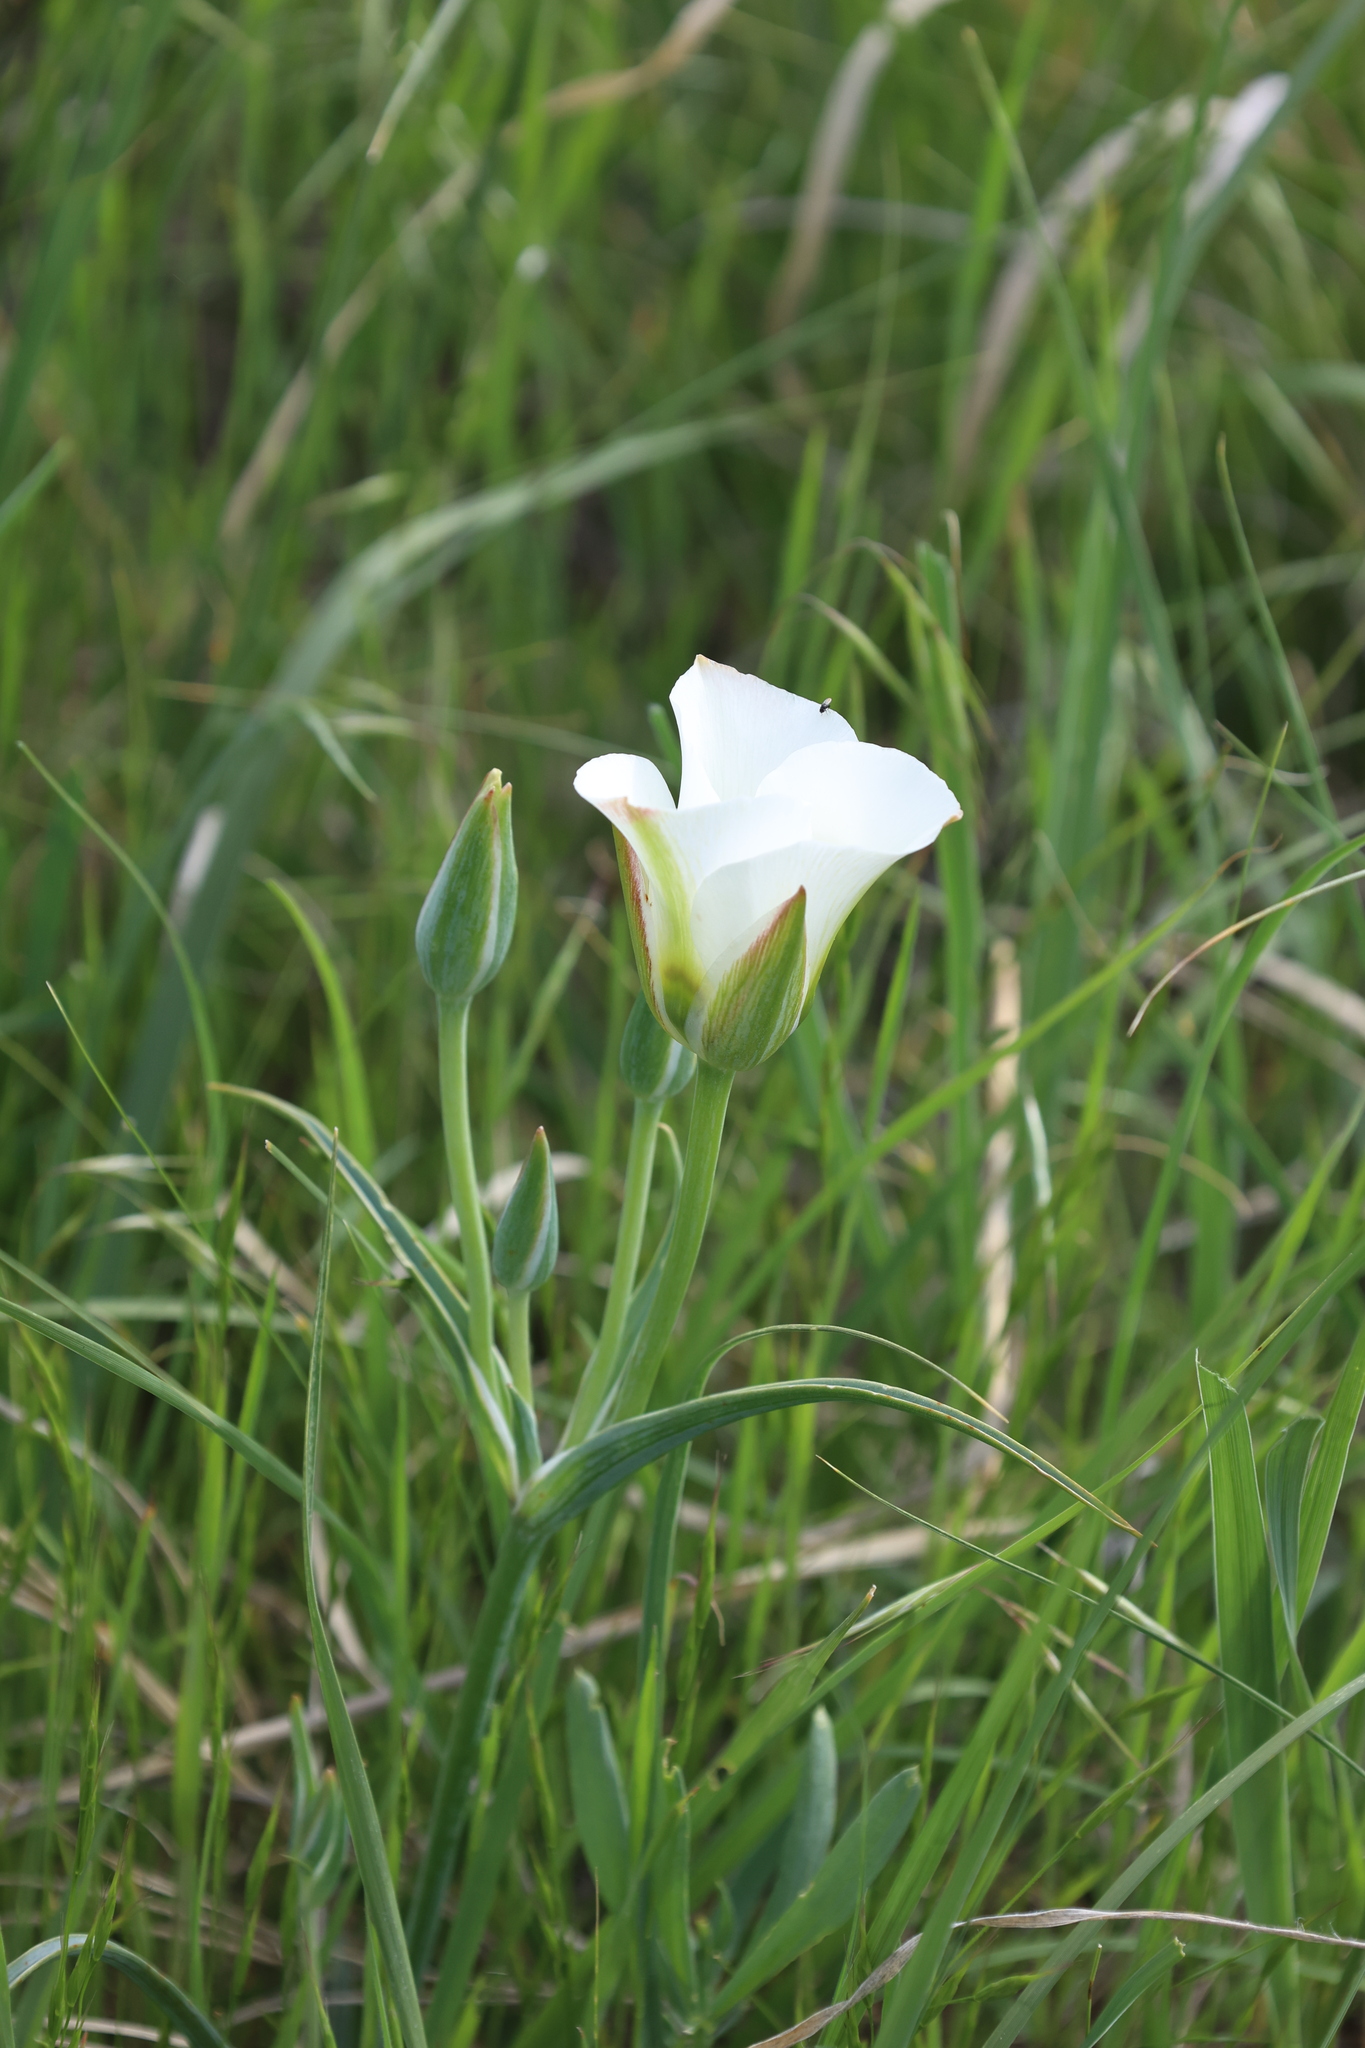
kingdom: Plantae
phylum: Tracheophyta
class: Liliopsida
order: Liliales
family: Liliaceae
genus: Calochortus
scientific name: Calochortus nuttallii
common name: Sego-lily
